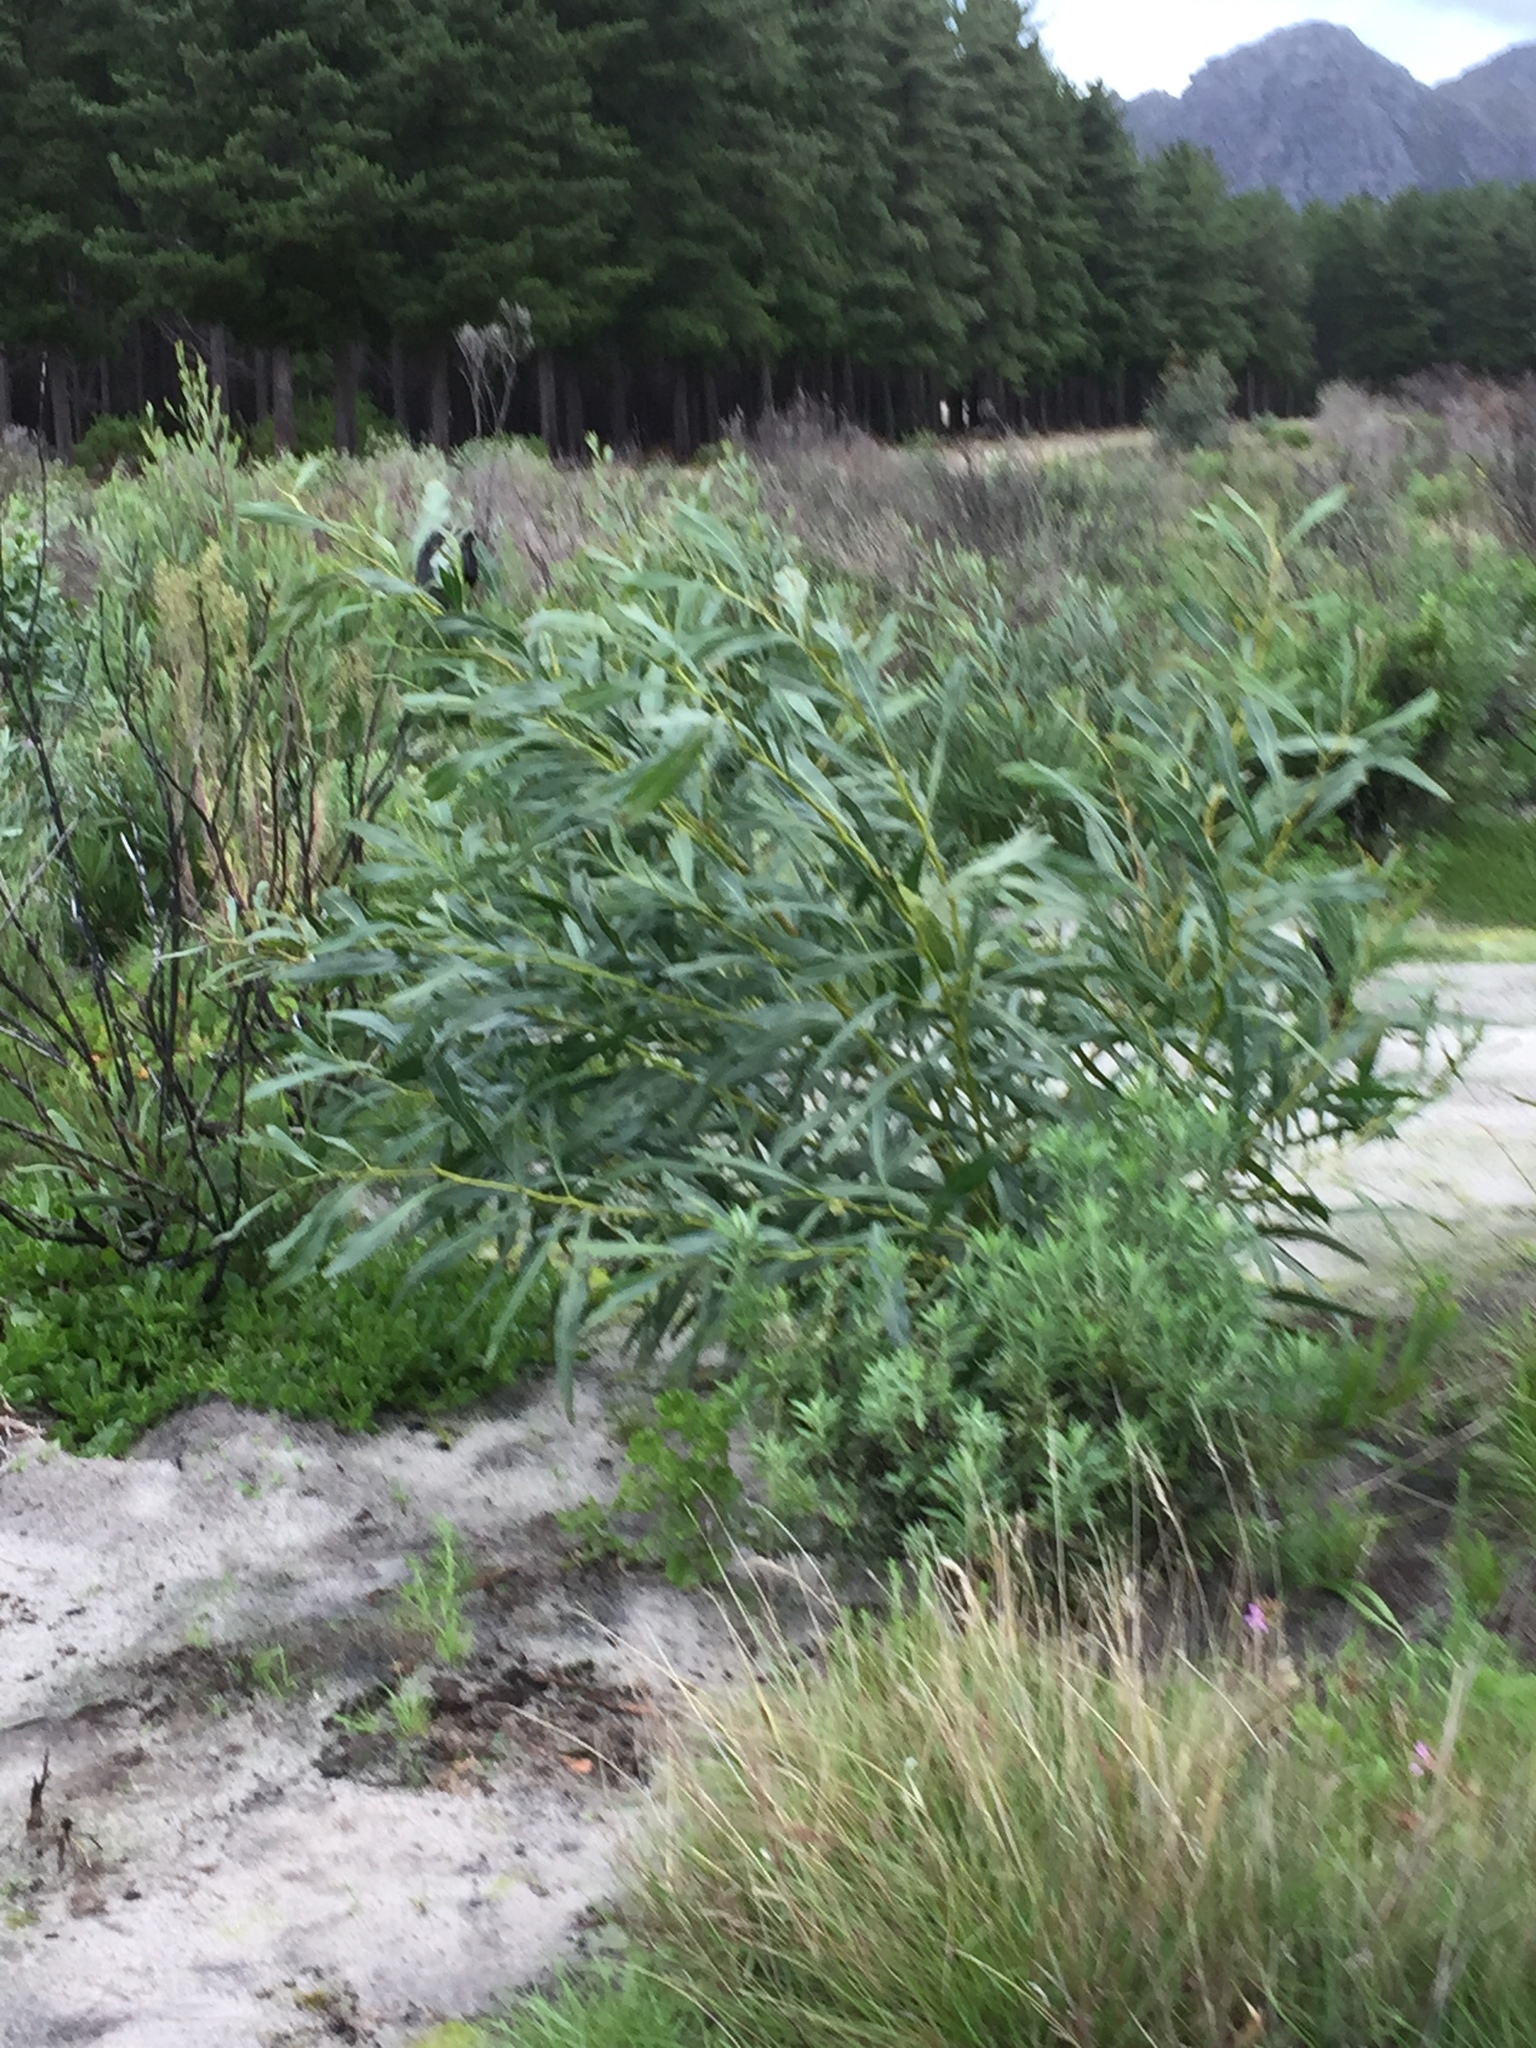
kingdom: Plantae
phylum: Tracheophyta
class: Magnoliopsida
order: Fabales
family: Fabaceae
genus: Acacia
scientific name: Acacia saligna
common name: Orange wattle
